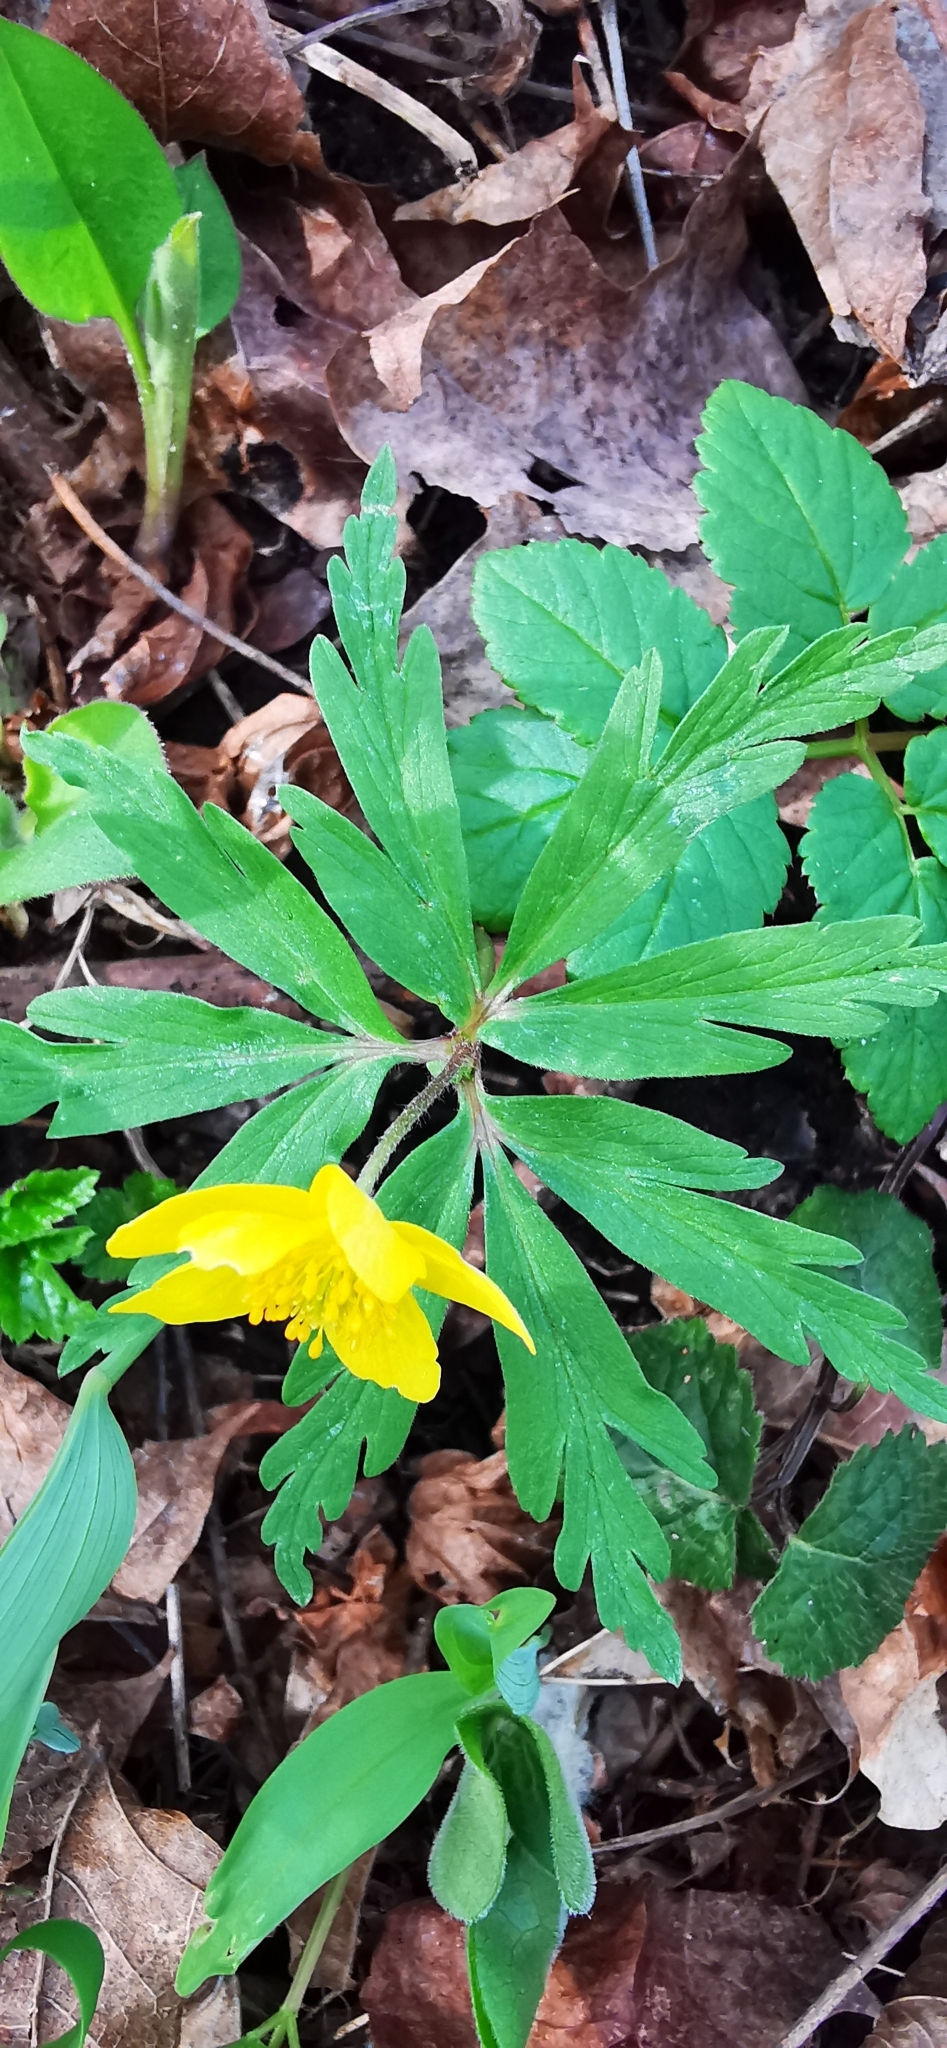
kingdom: Plantae
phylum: Tracheophyta
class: Magnoliopsida
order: Ranunculales
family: Ranunculaceae
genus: Anemone
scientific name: Anemone ranunculoides
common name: Yellow anemone
